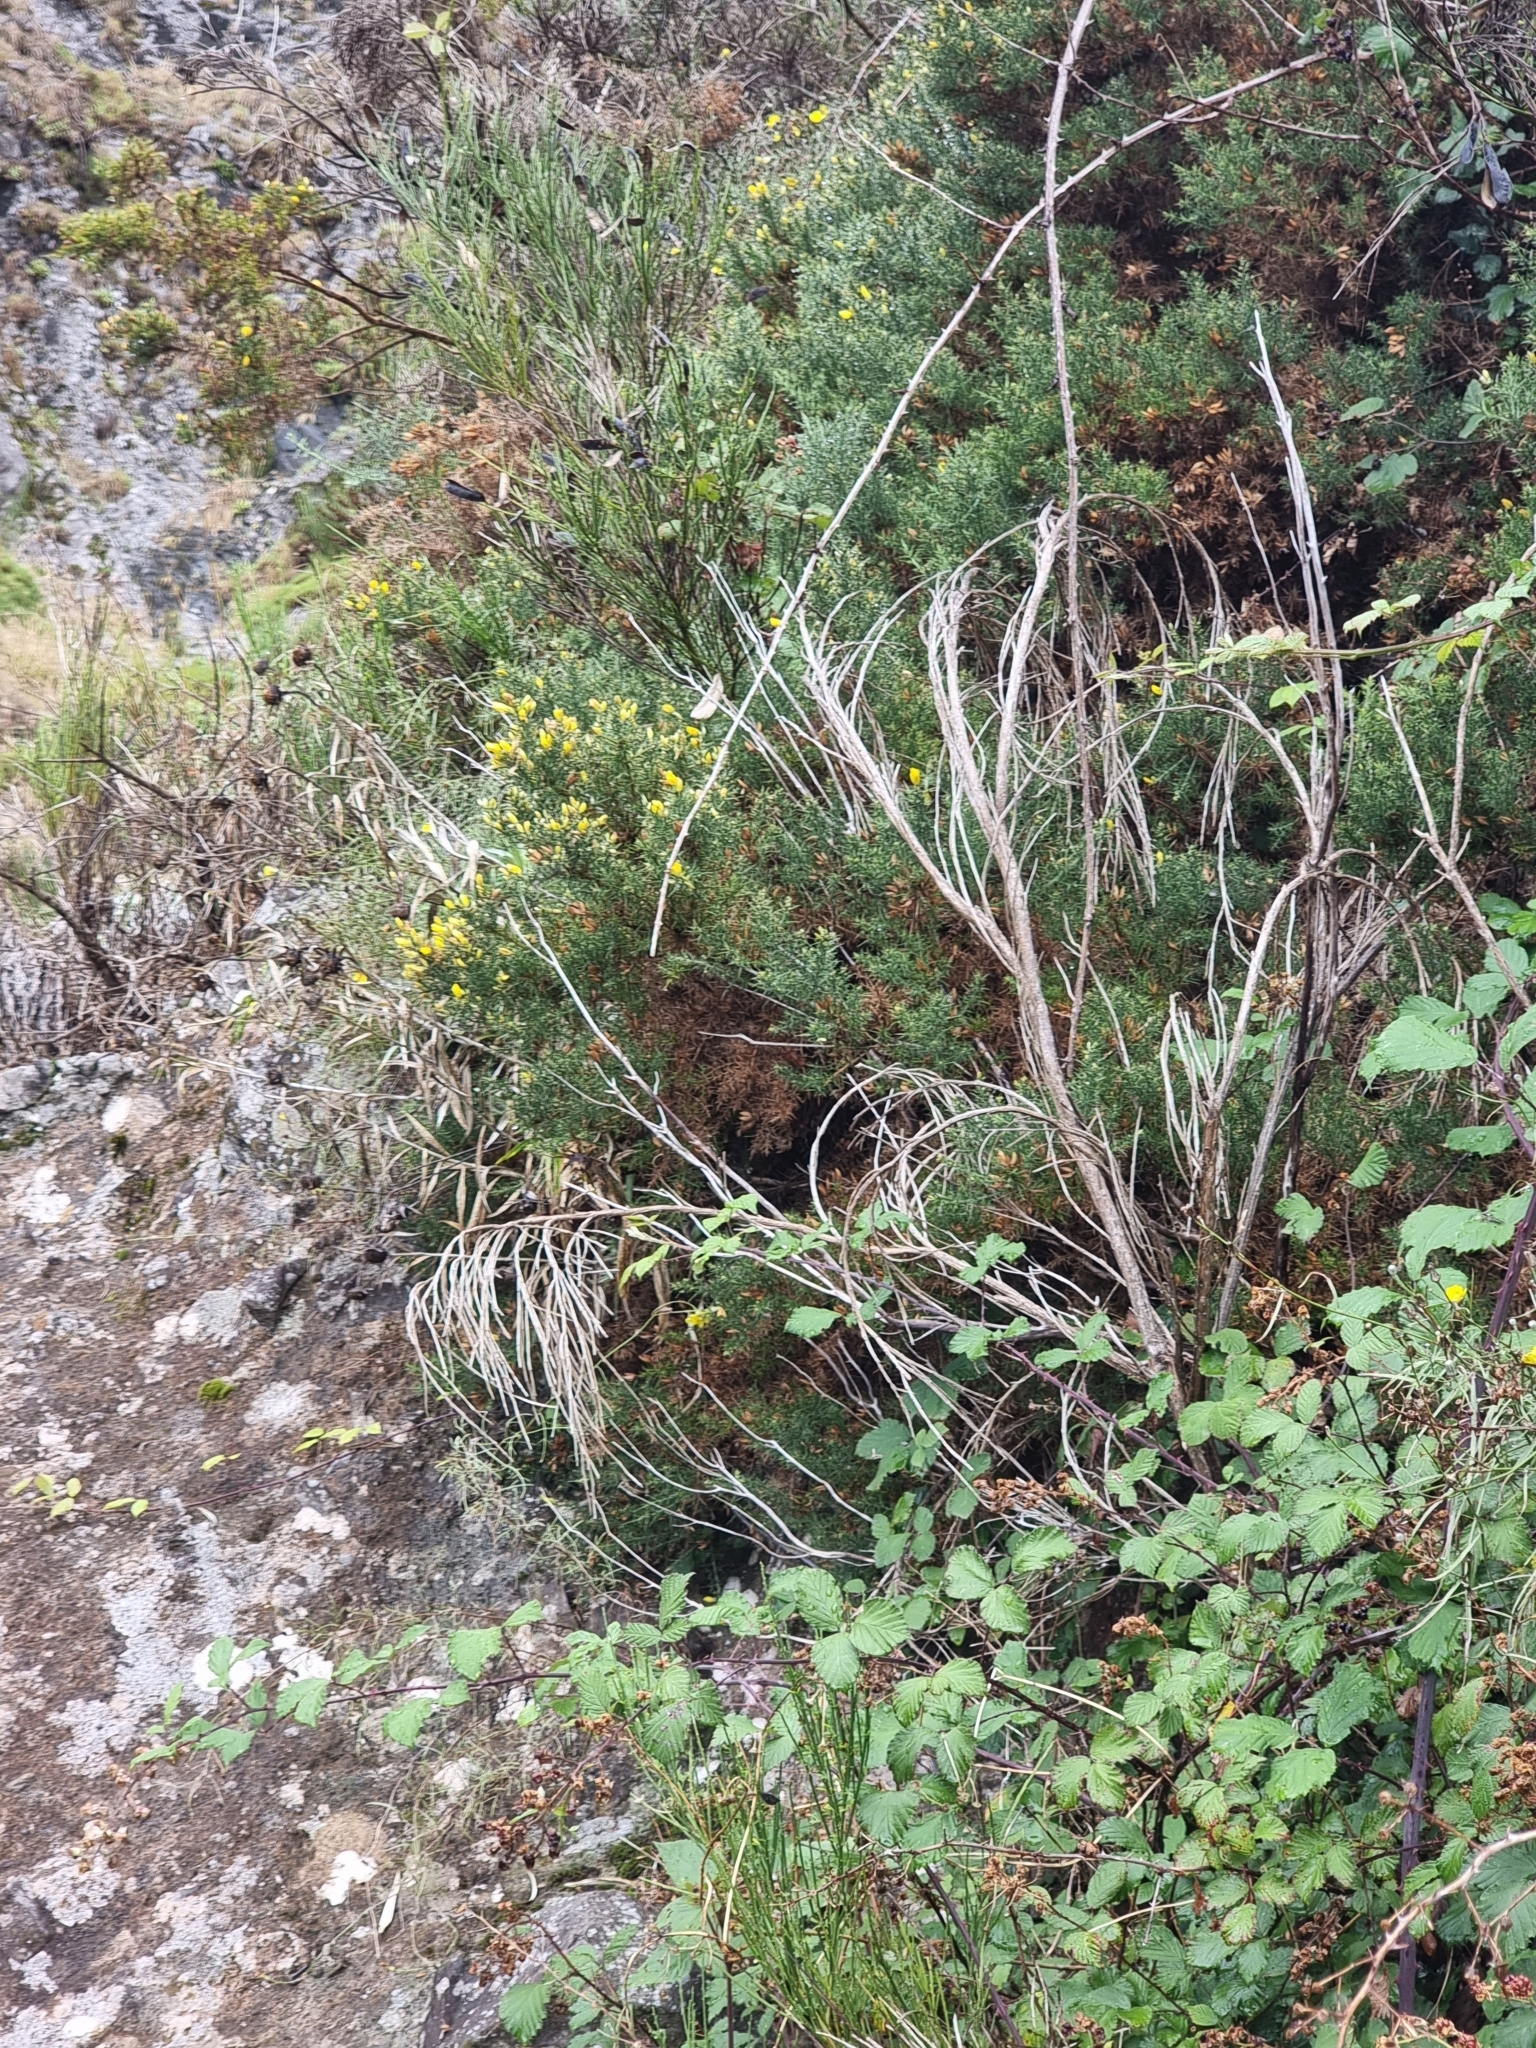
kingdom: Plantae
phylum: Tracheophyta
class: Magnoliopsida
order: Fabales
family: Fabaceae
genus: Ulex
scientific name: Ulex europaeus
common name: Common gorse
